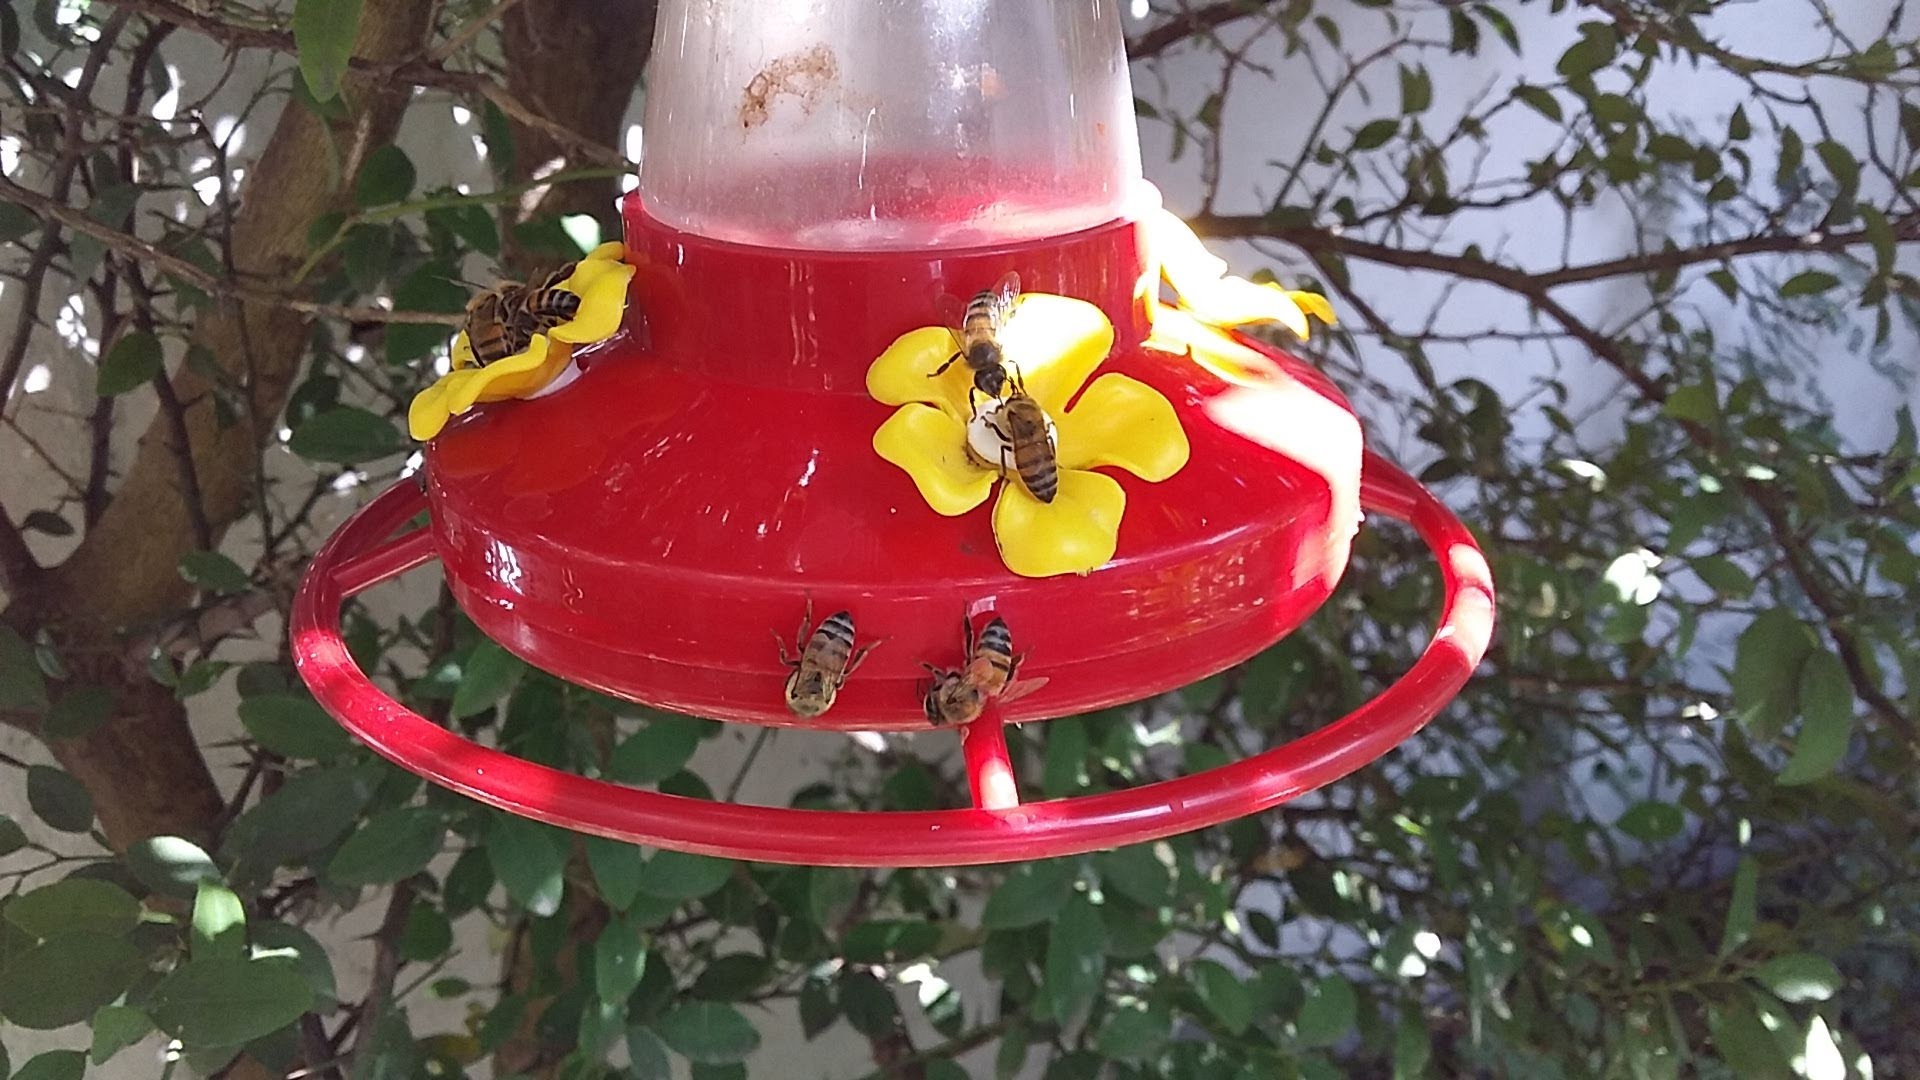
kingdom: Animalia
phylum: Arthropoda
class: Insecta
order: Hymenoptera
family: Apidae
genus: Apis
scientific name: Apis mellifera
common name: Honey bee
